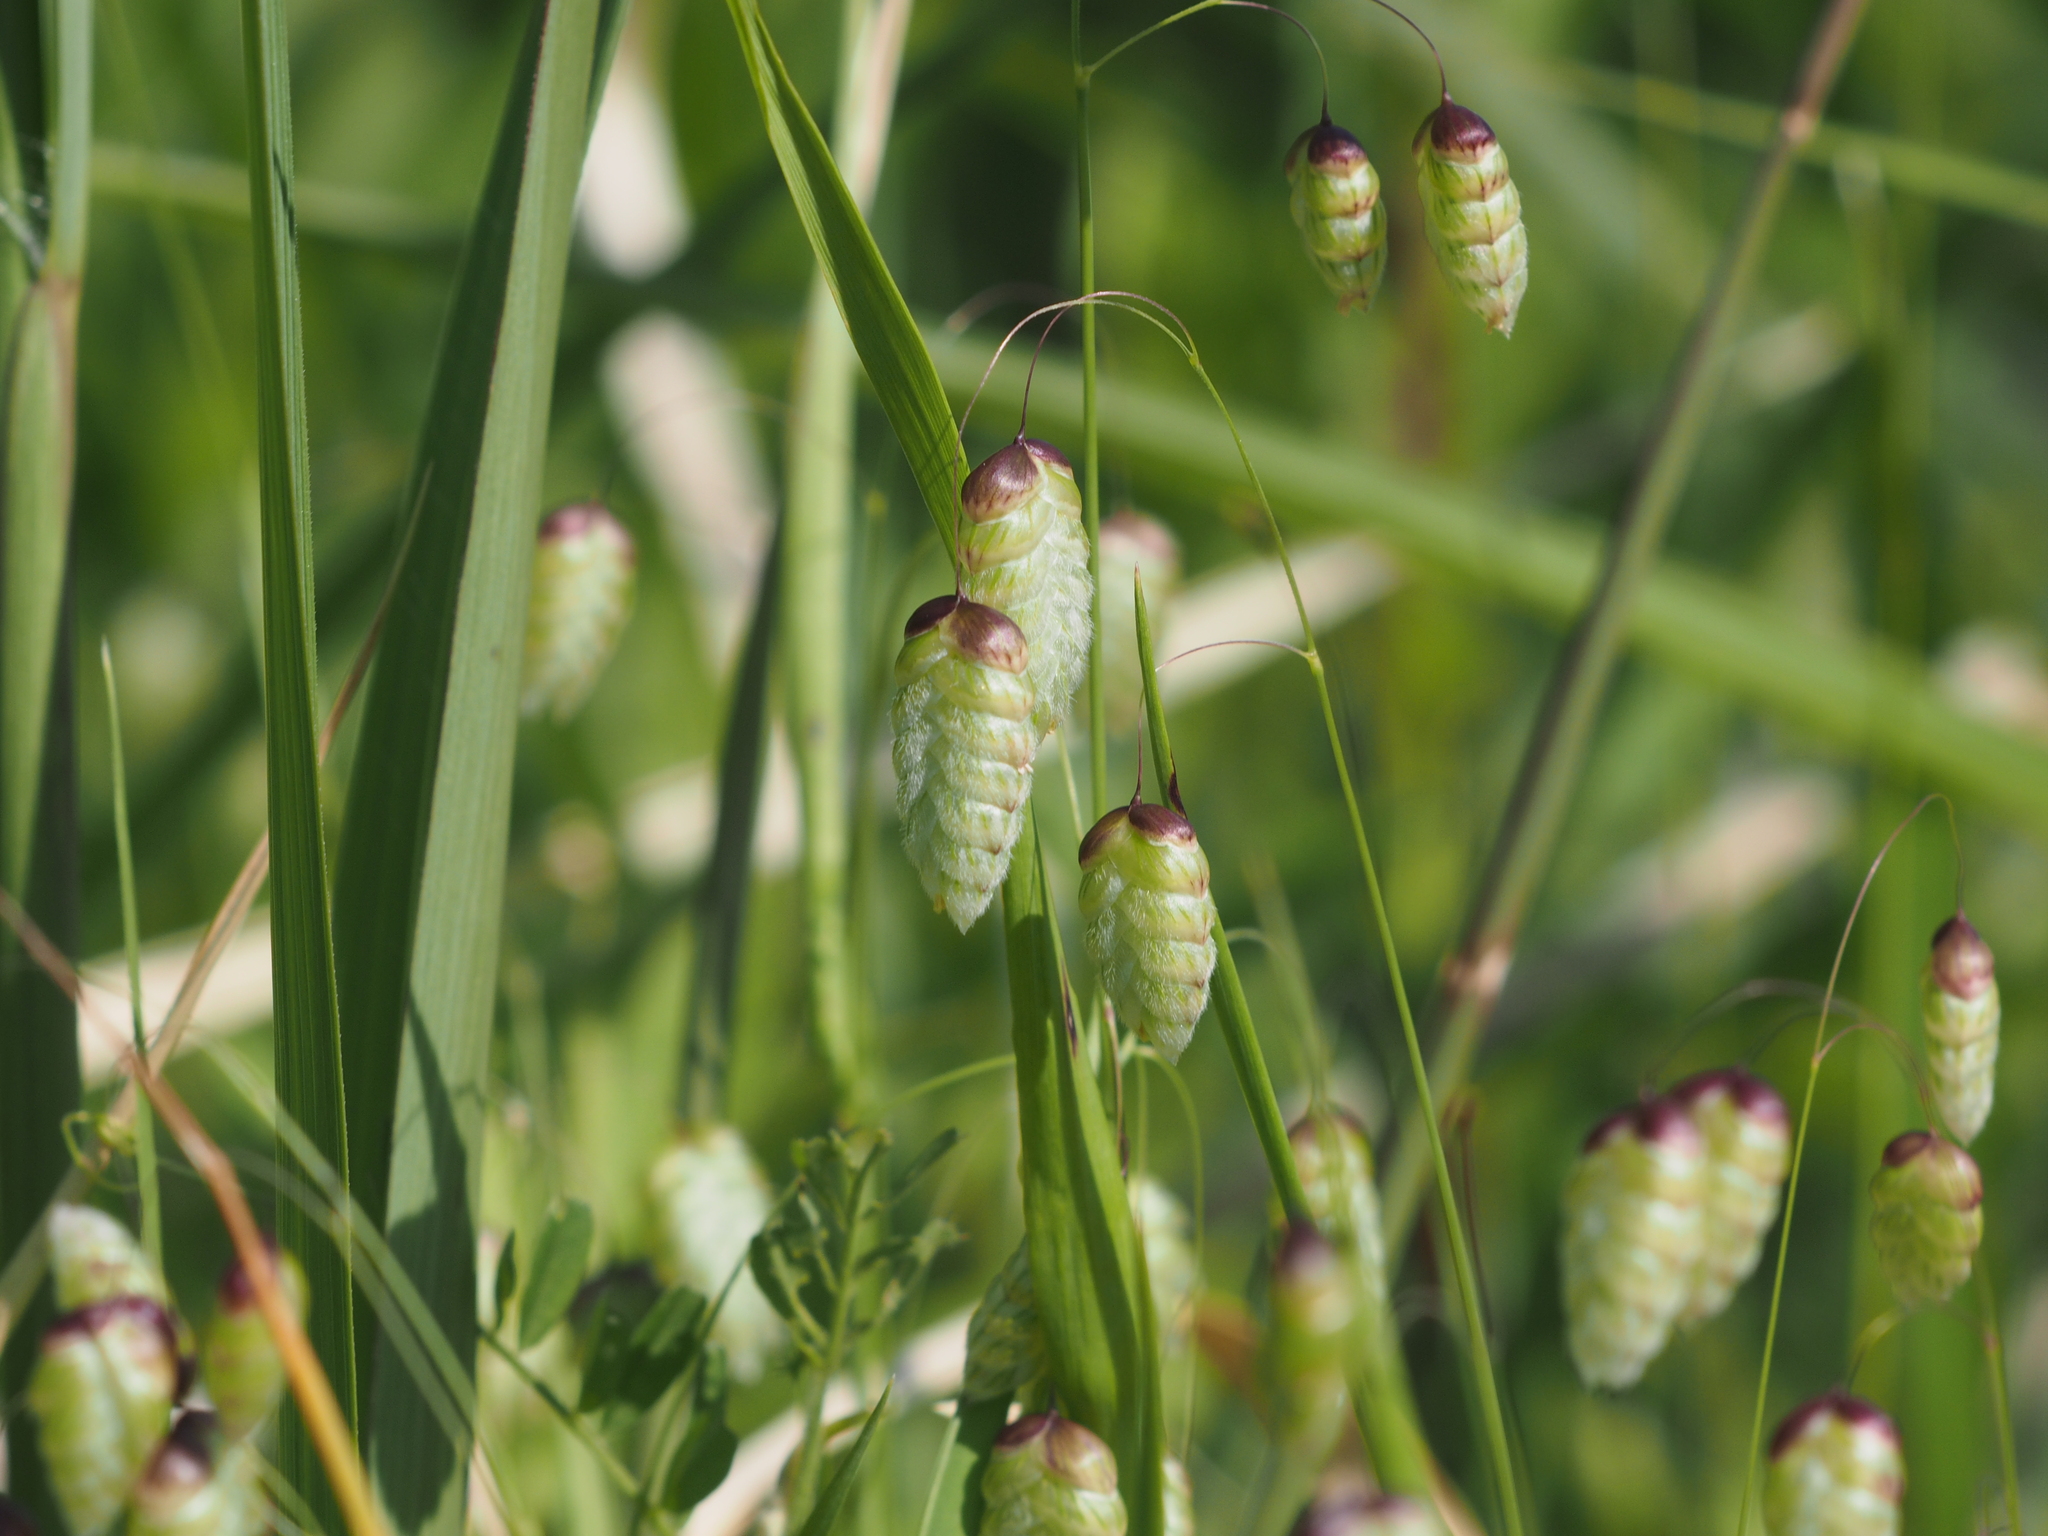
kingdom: Plantae
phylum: Tracheophyta
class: Liliopsida
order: Poales
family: Poaceae
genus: Briza
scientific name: Briza maxima
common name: Big quakinggrass
